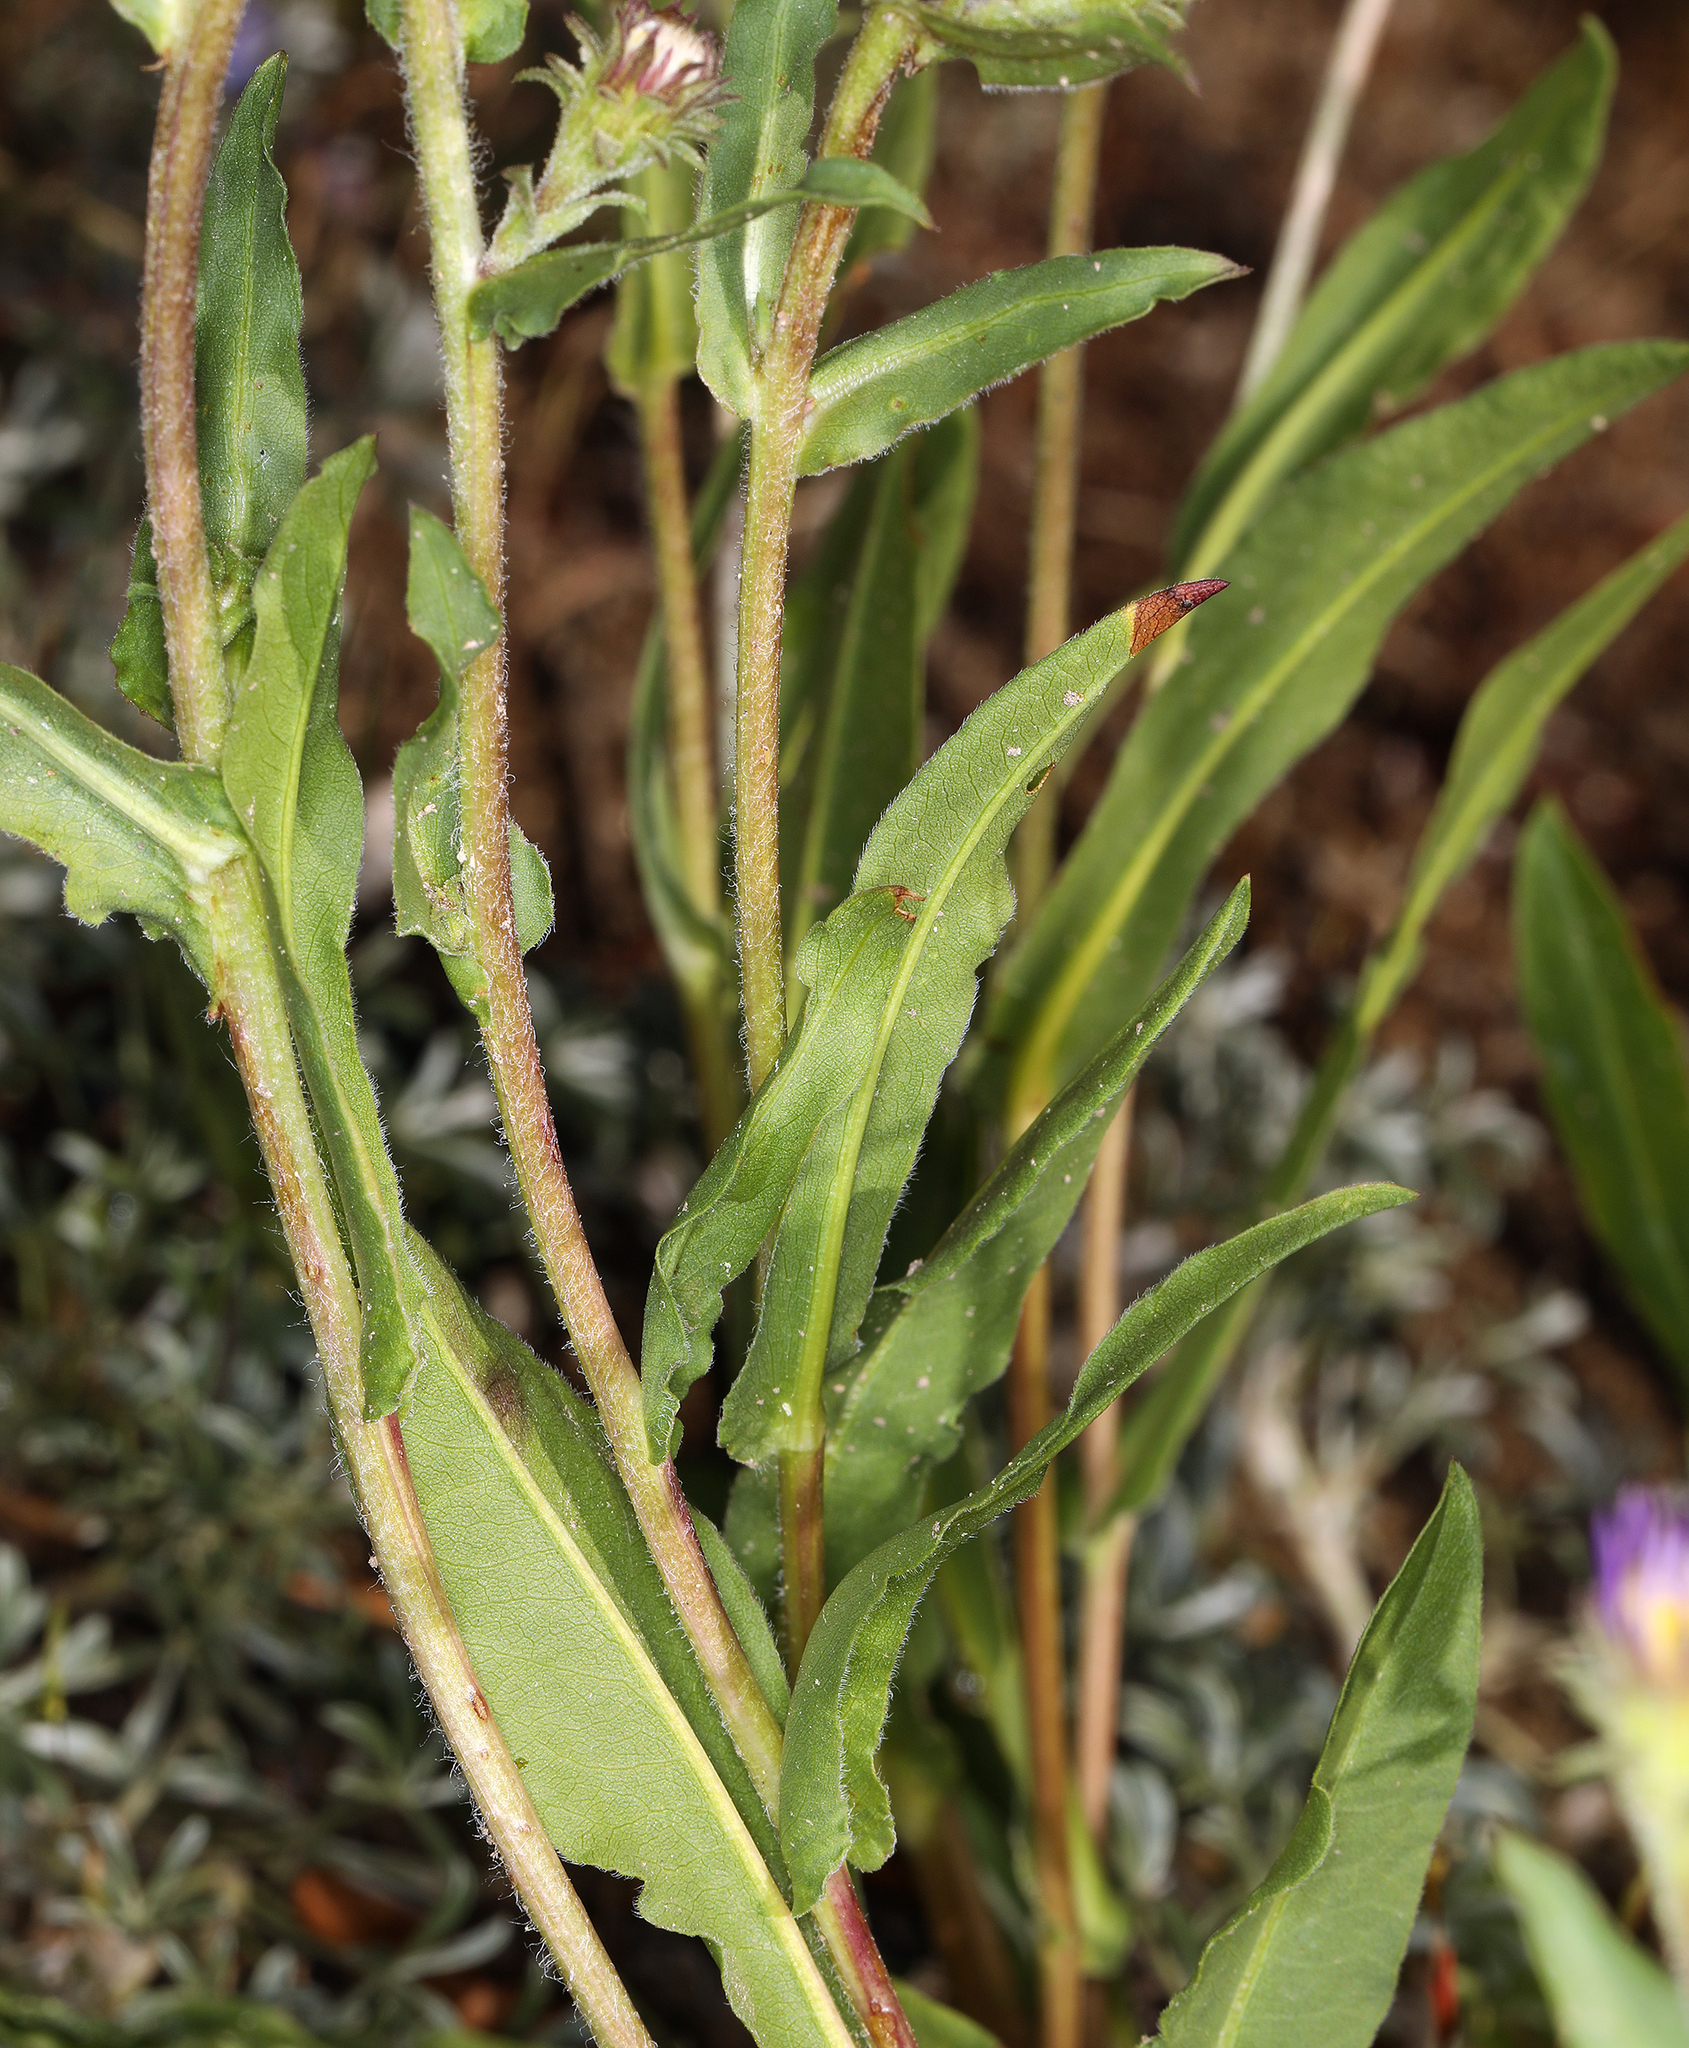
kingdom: Plantae
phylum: Tracheophyta
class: Magnoliopsida
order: Asterales
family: Asteraceae
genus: Eurybia
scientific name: Eurybia integrifolia
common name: Thick-stem aster
